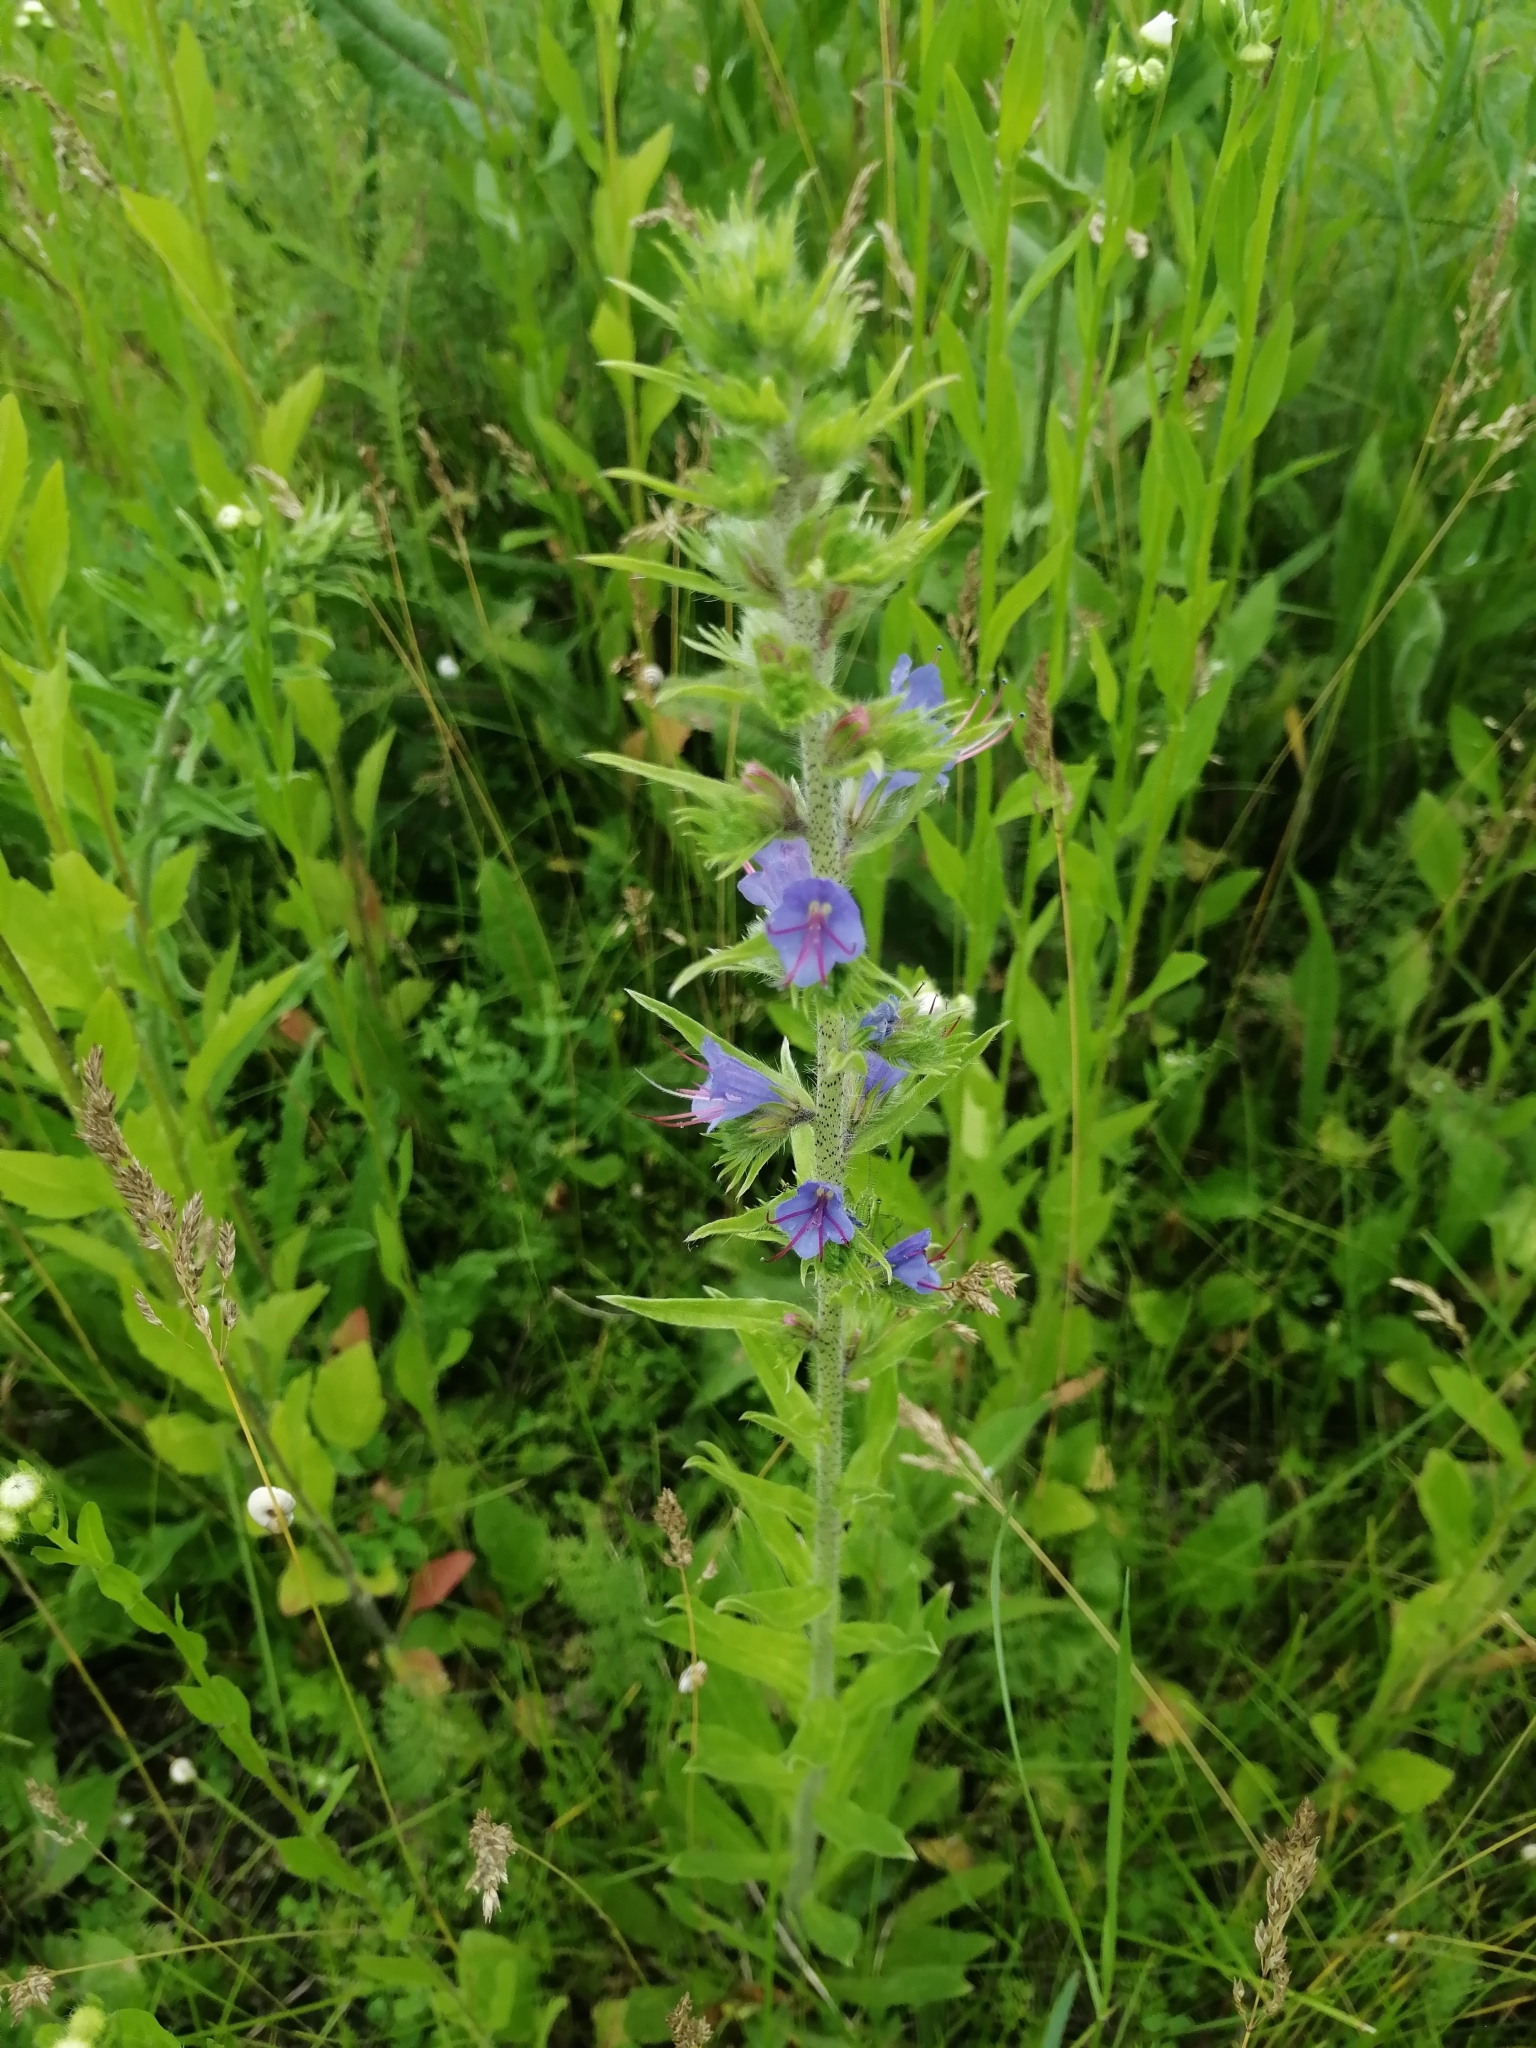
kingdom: Plantae
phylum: Tracheophyta
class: Magnoliopsida
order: Boraginales
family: Boraginaceae
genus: Echium
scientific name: Echium vulgare
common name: Common viper's bugloss
